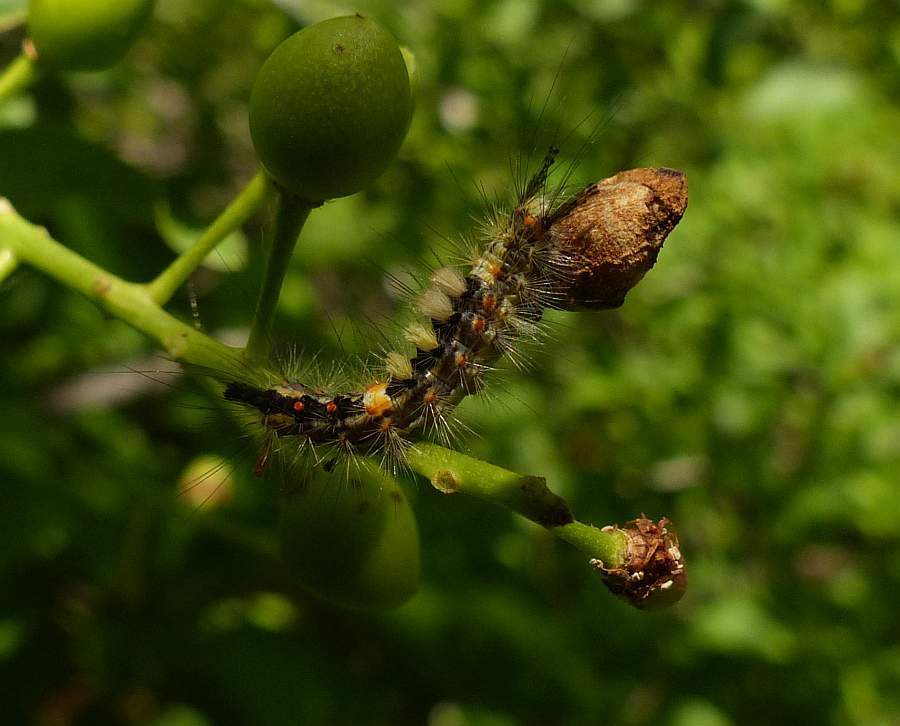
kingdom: Animalia
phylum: Arthropoda
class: Insecta
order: Lepidoptera
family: Erebidae
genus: Orgyia
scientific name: Orgyia antiqua
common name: Vapourer
